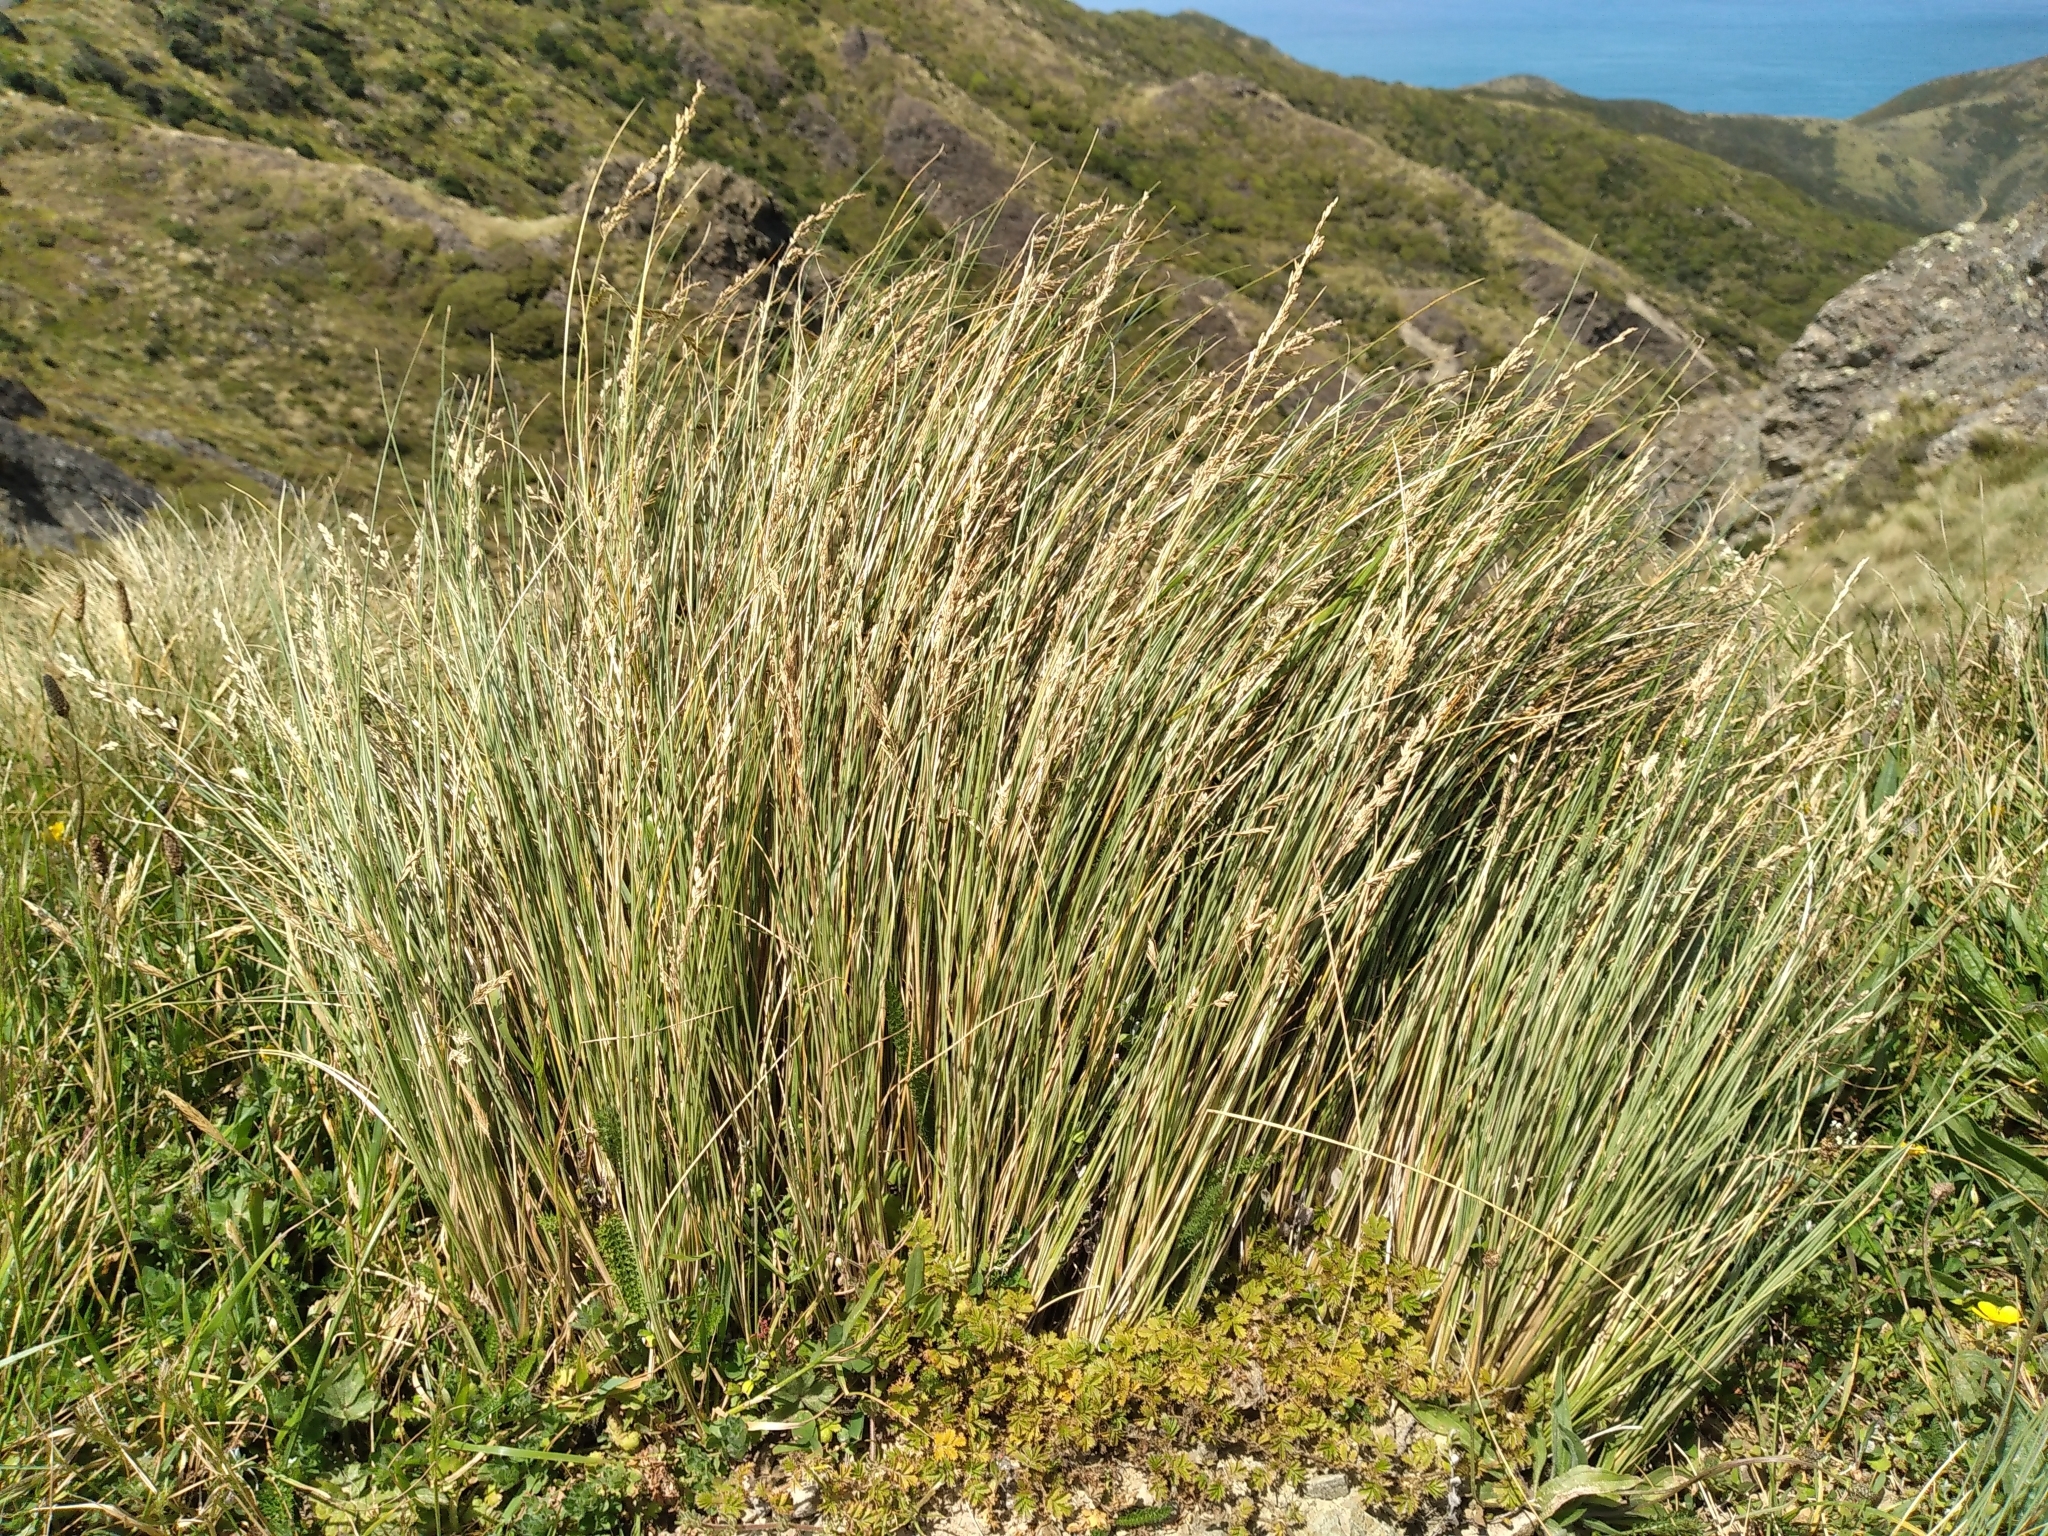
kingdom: Plantae
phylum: Tracheophyta
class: Liliopsida
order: Poales
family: Poaceae
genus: Poa
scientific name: Poa cita
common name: Silver tussock
